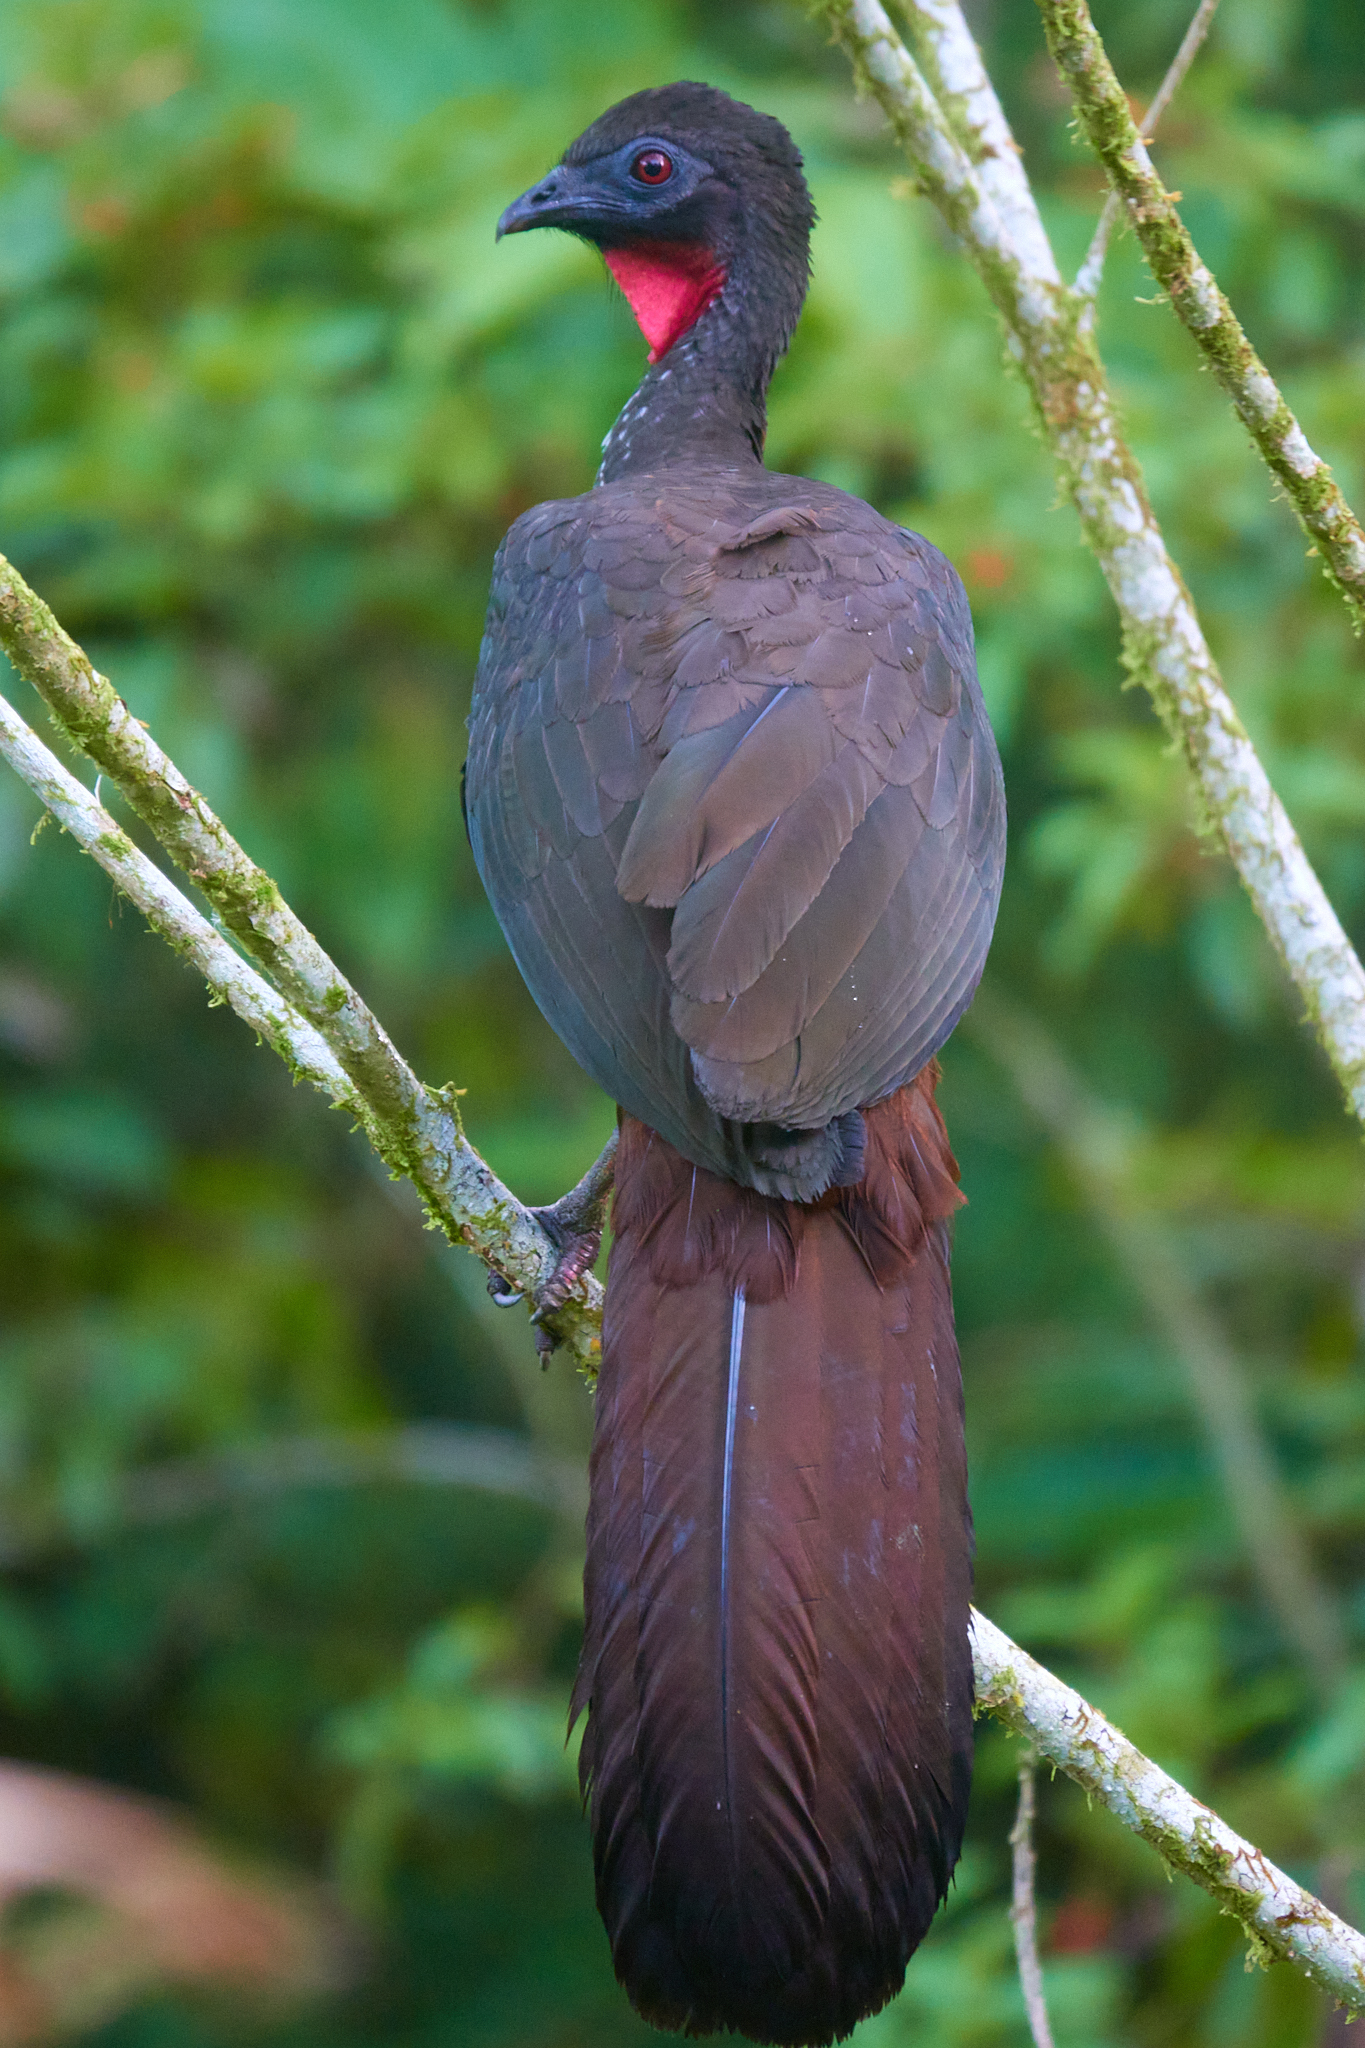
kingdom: Animalia
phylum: Chordata
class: Aves
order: Galliformes
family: Cracidae
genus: Penelope
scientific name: Penelope purpurascens
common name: Crested guan
